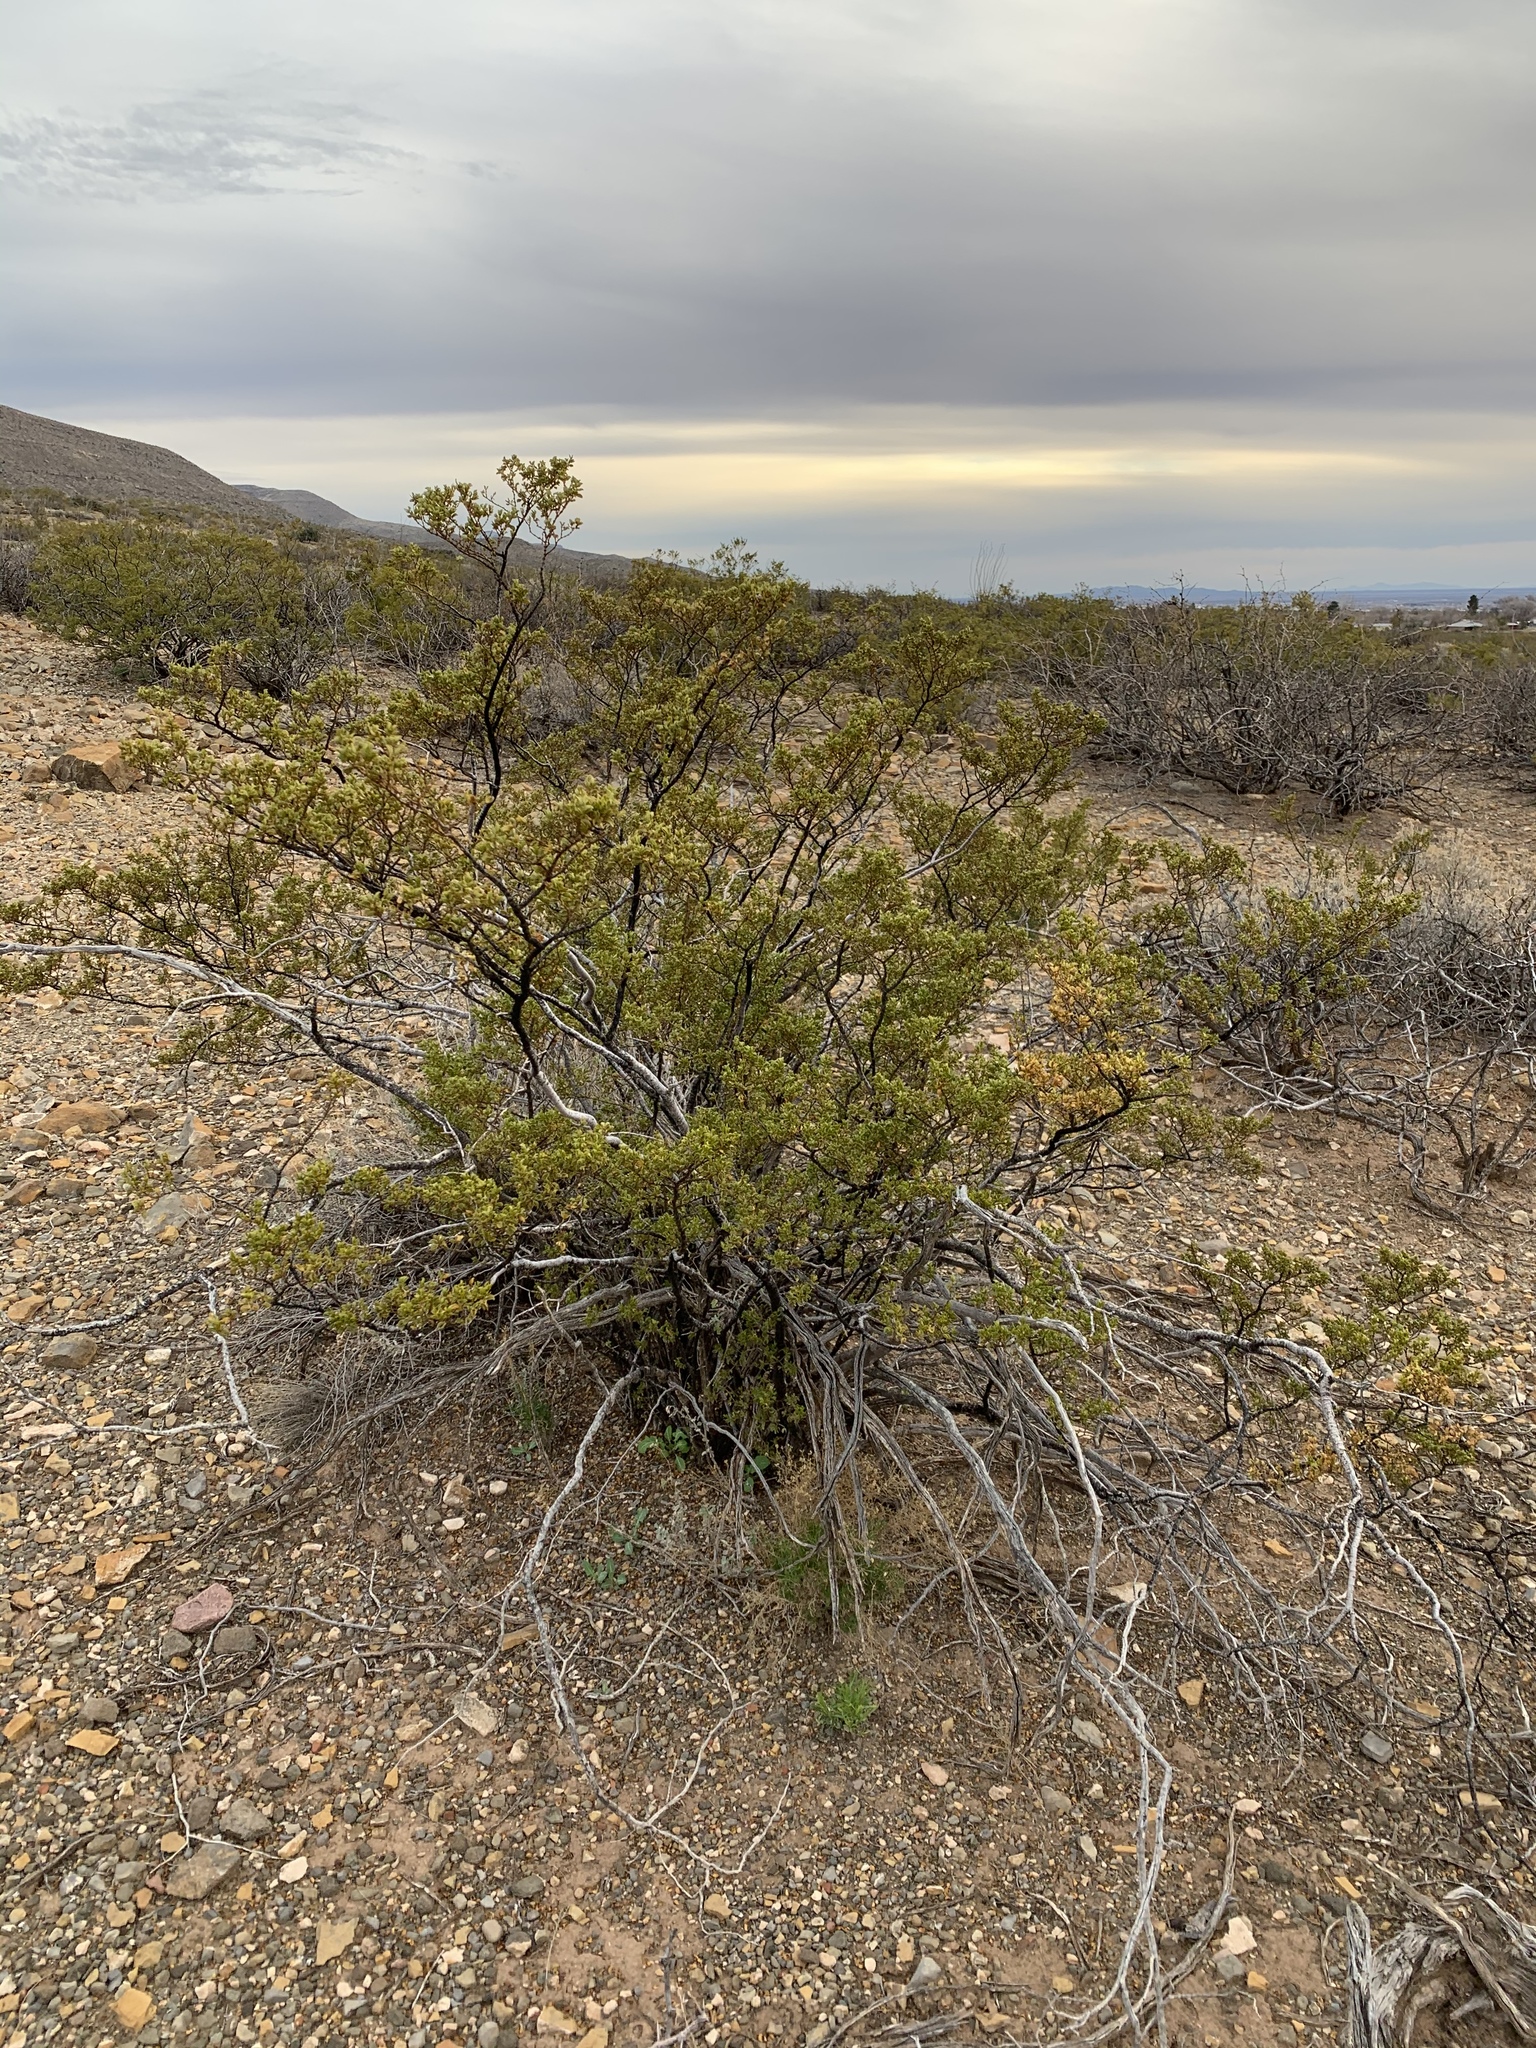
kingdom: Plantae
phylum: Tracheophyta
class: Magnoliopsida
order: Zygophyllales
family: Zygophyllaceae
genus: Larrea
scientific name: Larrea tridentata
